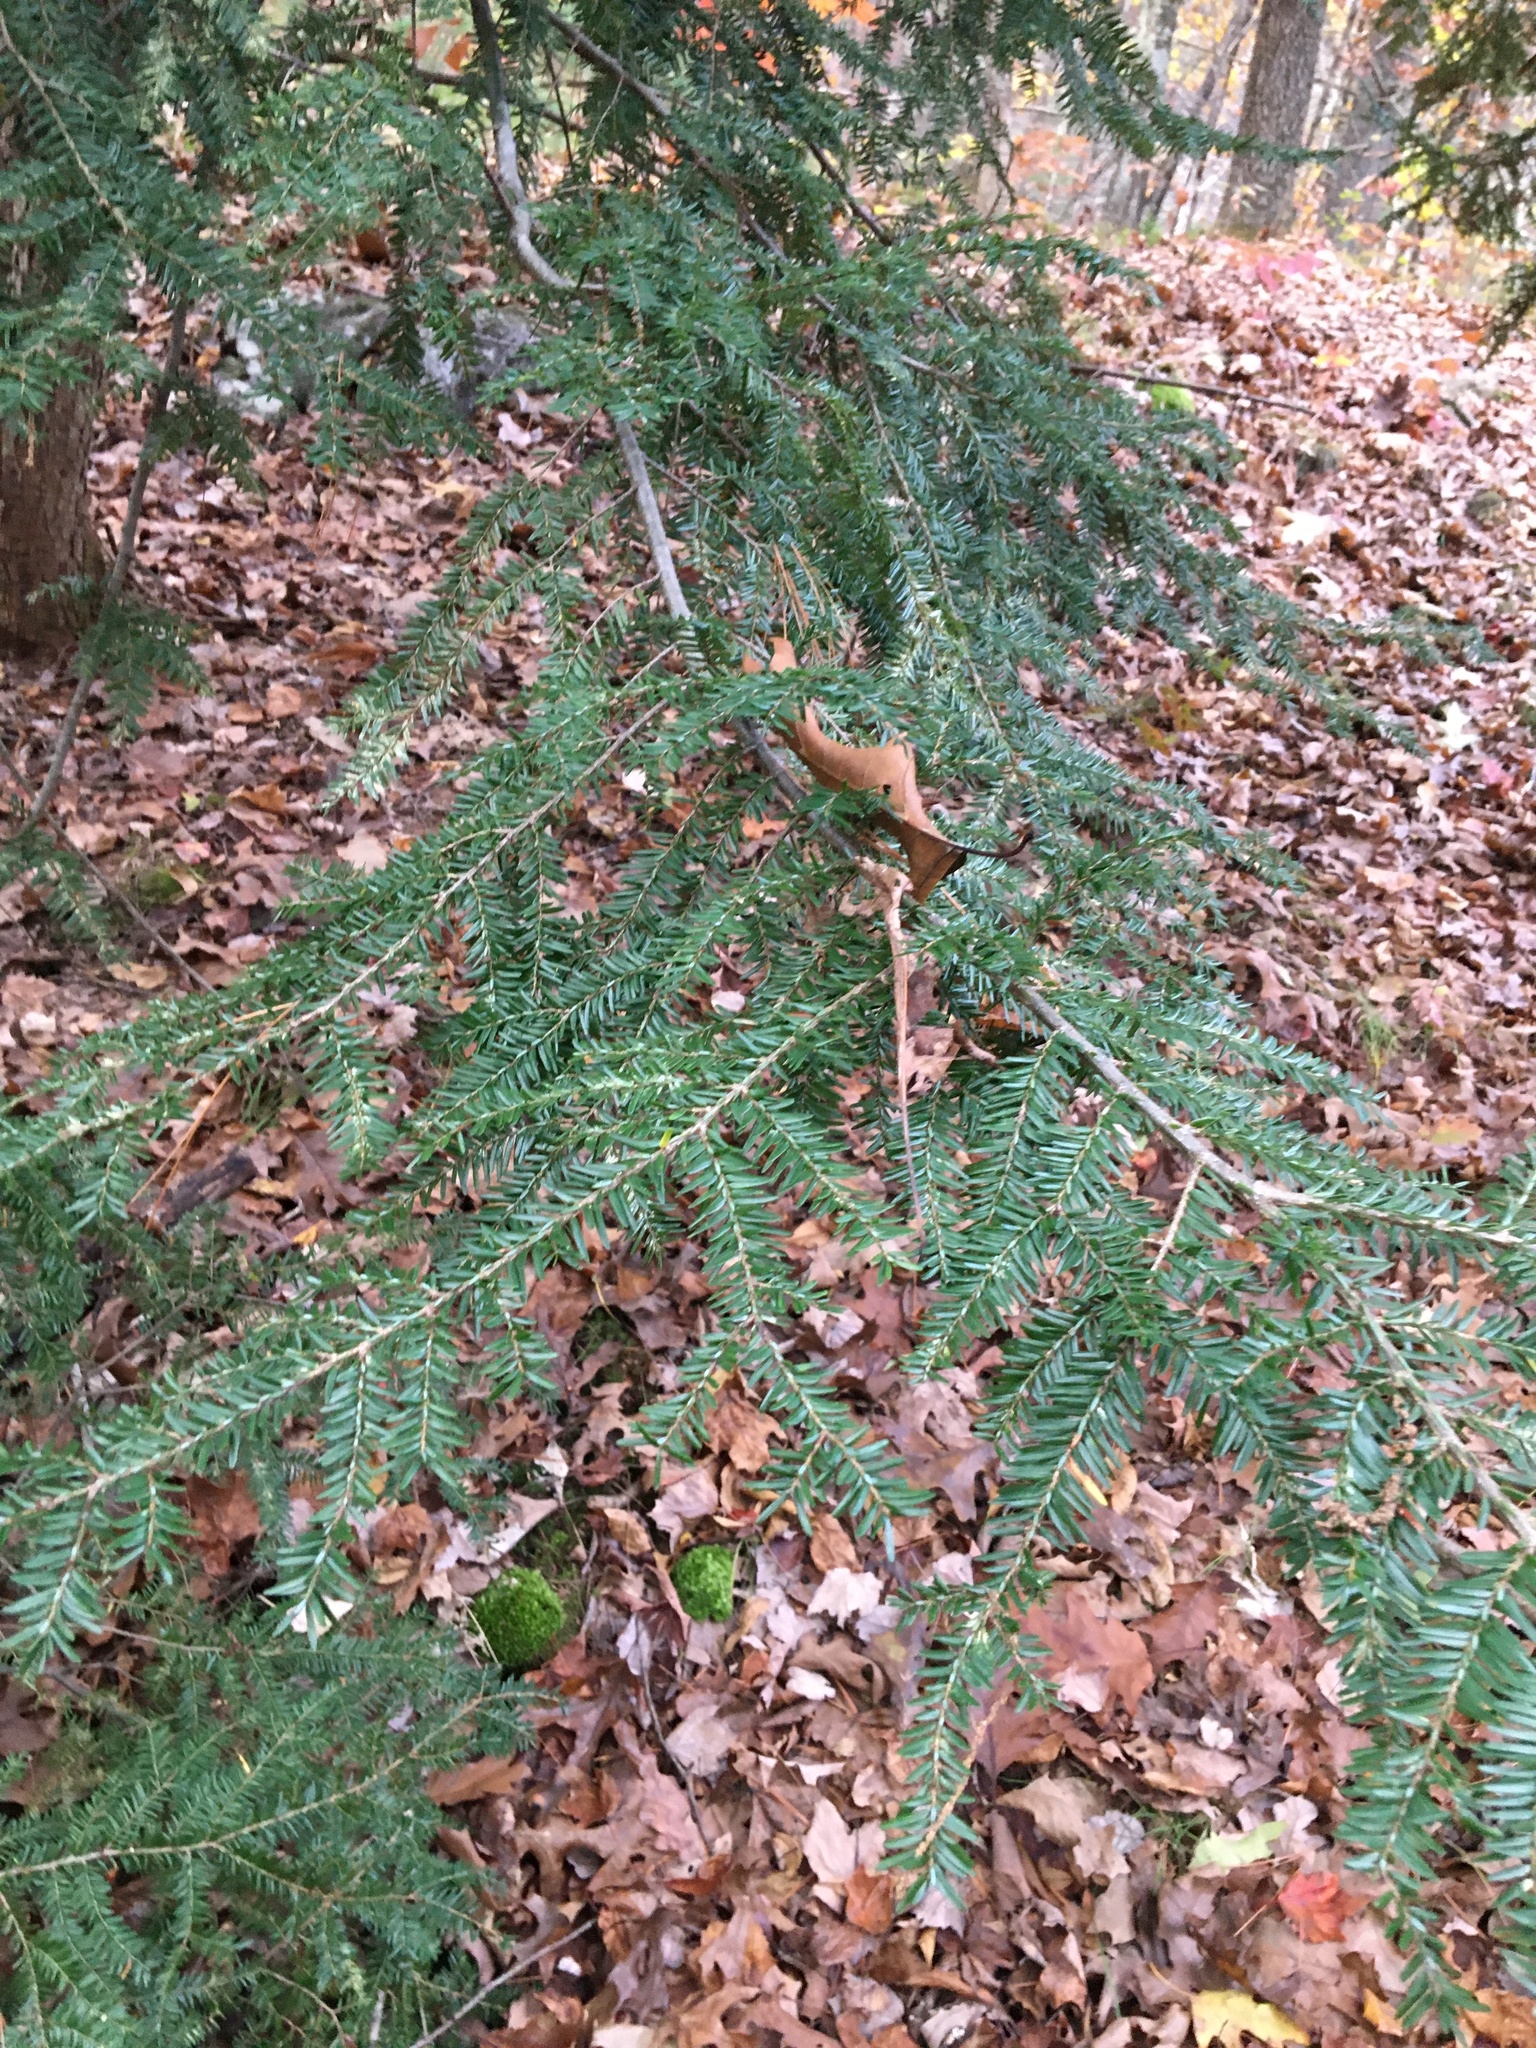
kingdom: Plantae
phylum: Tracheophyta
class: Pinopsida
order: Pinales
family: Pinaceae
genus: Tsuga
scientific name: Tsuga canadensis
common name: Eastern hemlock
